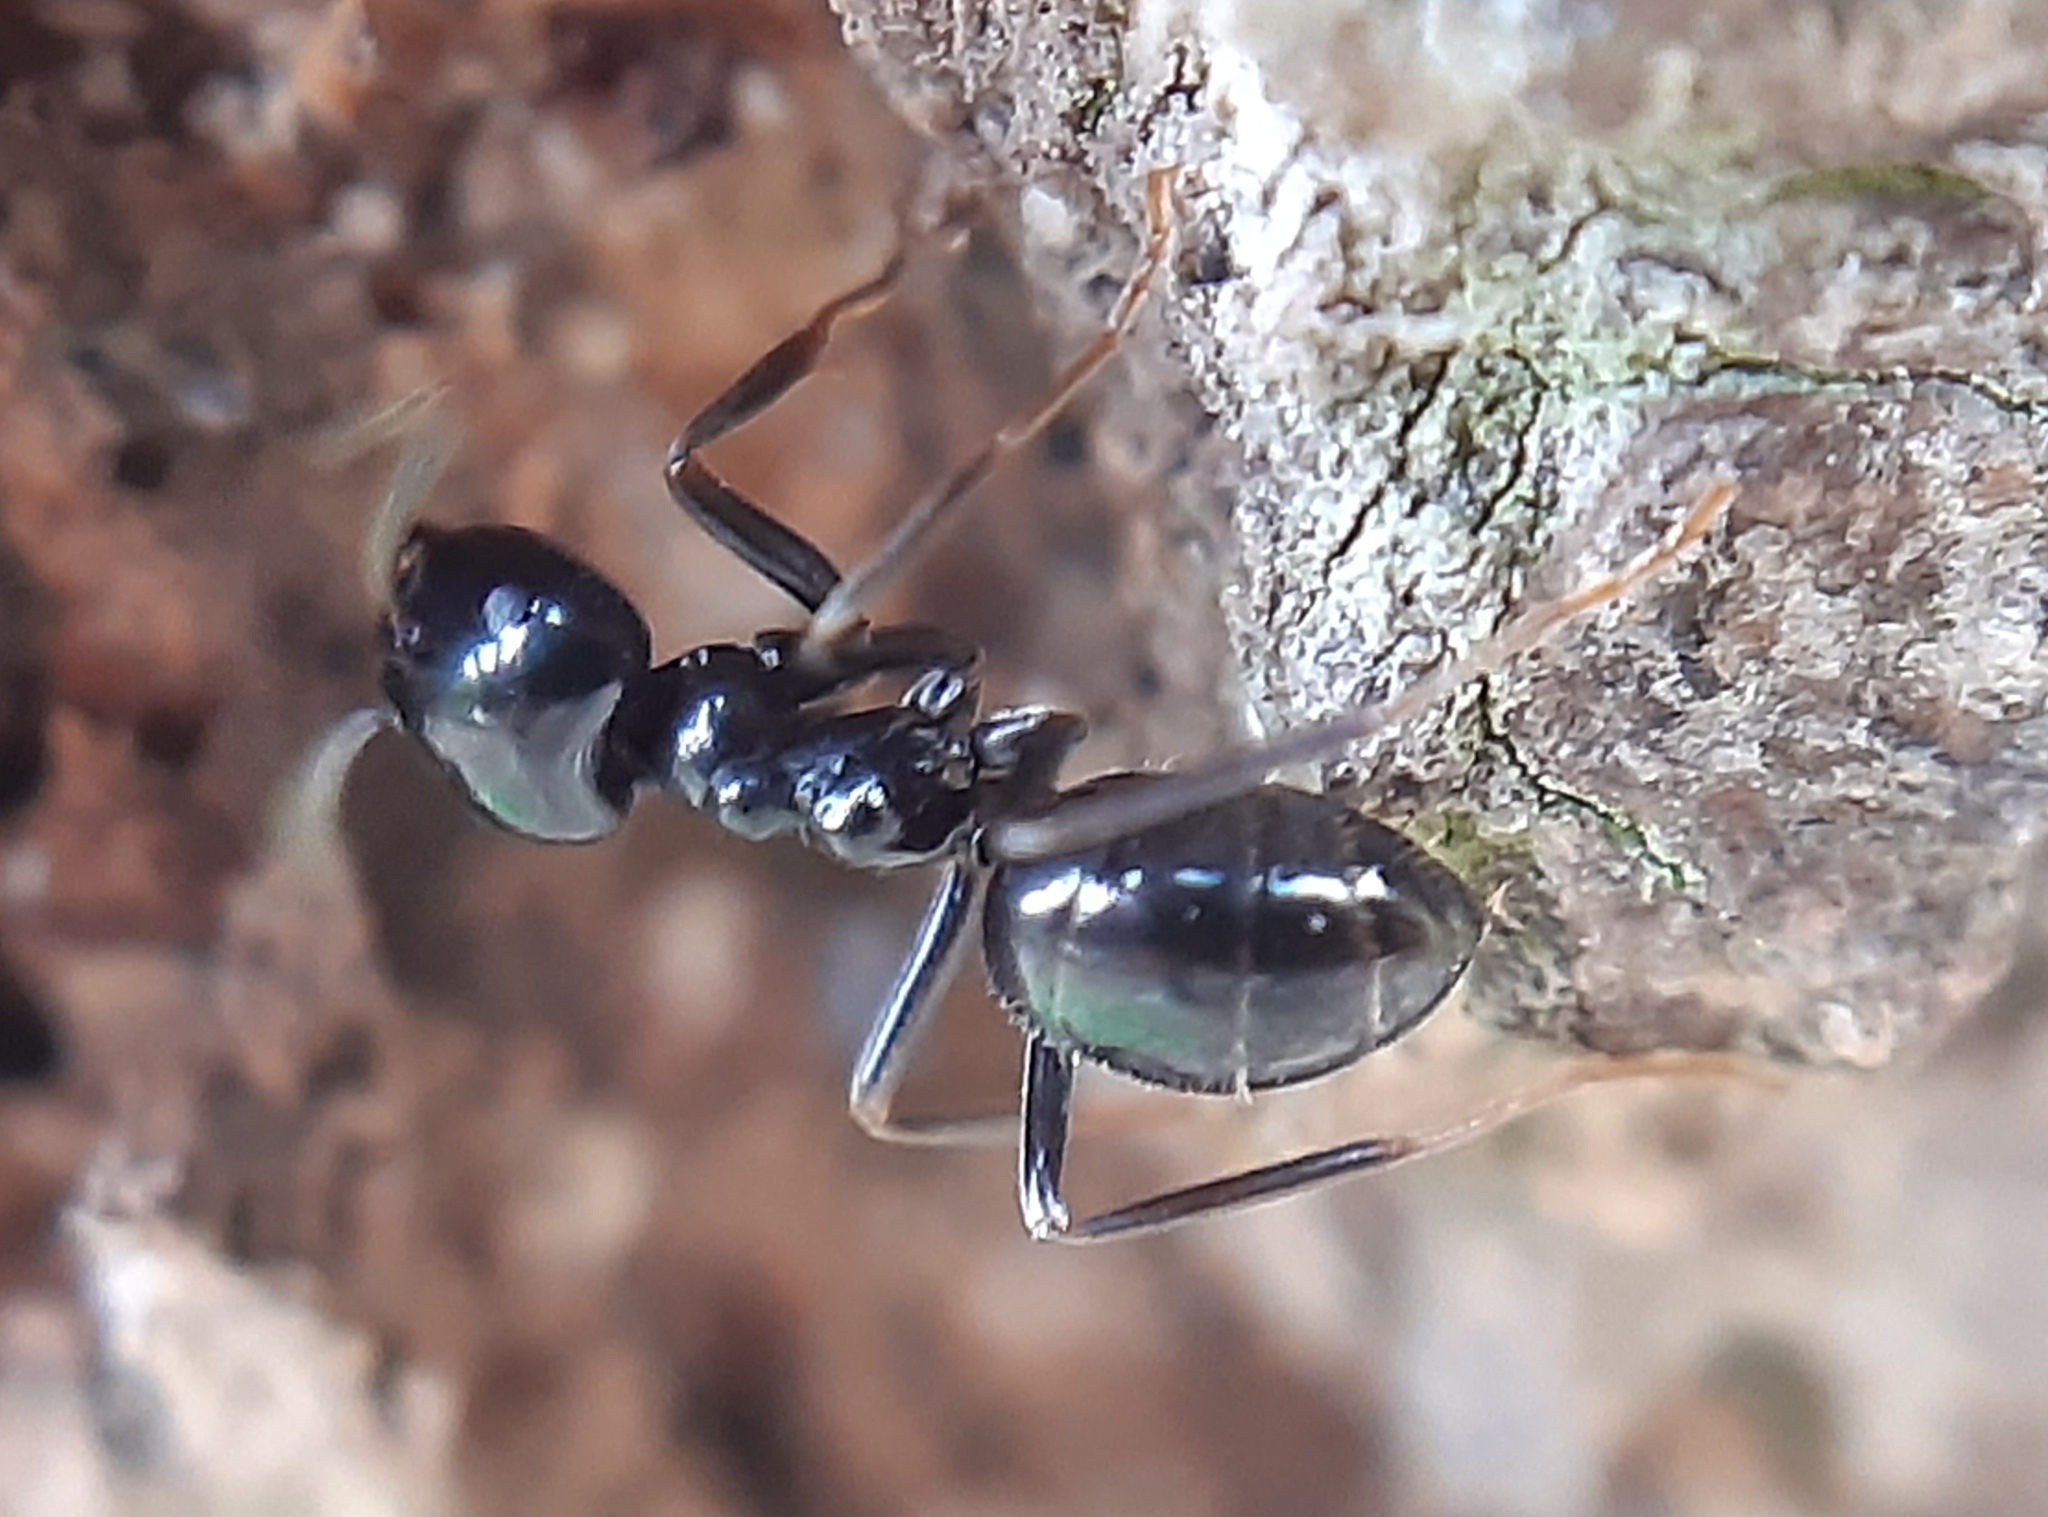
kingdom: Animalia
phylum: Arthropoda
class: Insecta
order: Hymenoptera
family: Formicidae
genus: Lasius
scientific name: Lasius fuliginosus
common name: Jet ant
